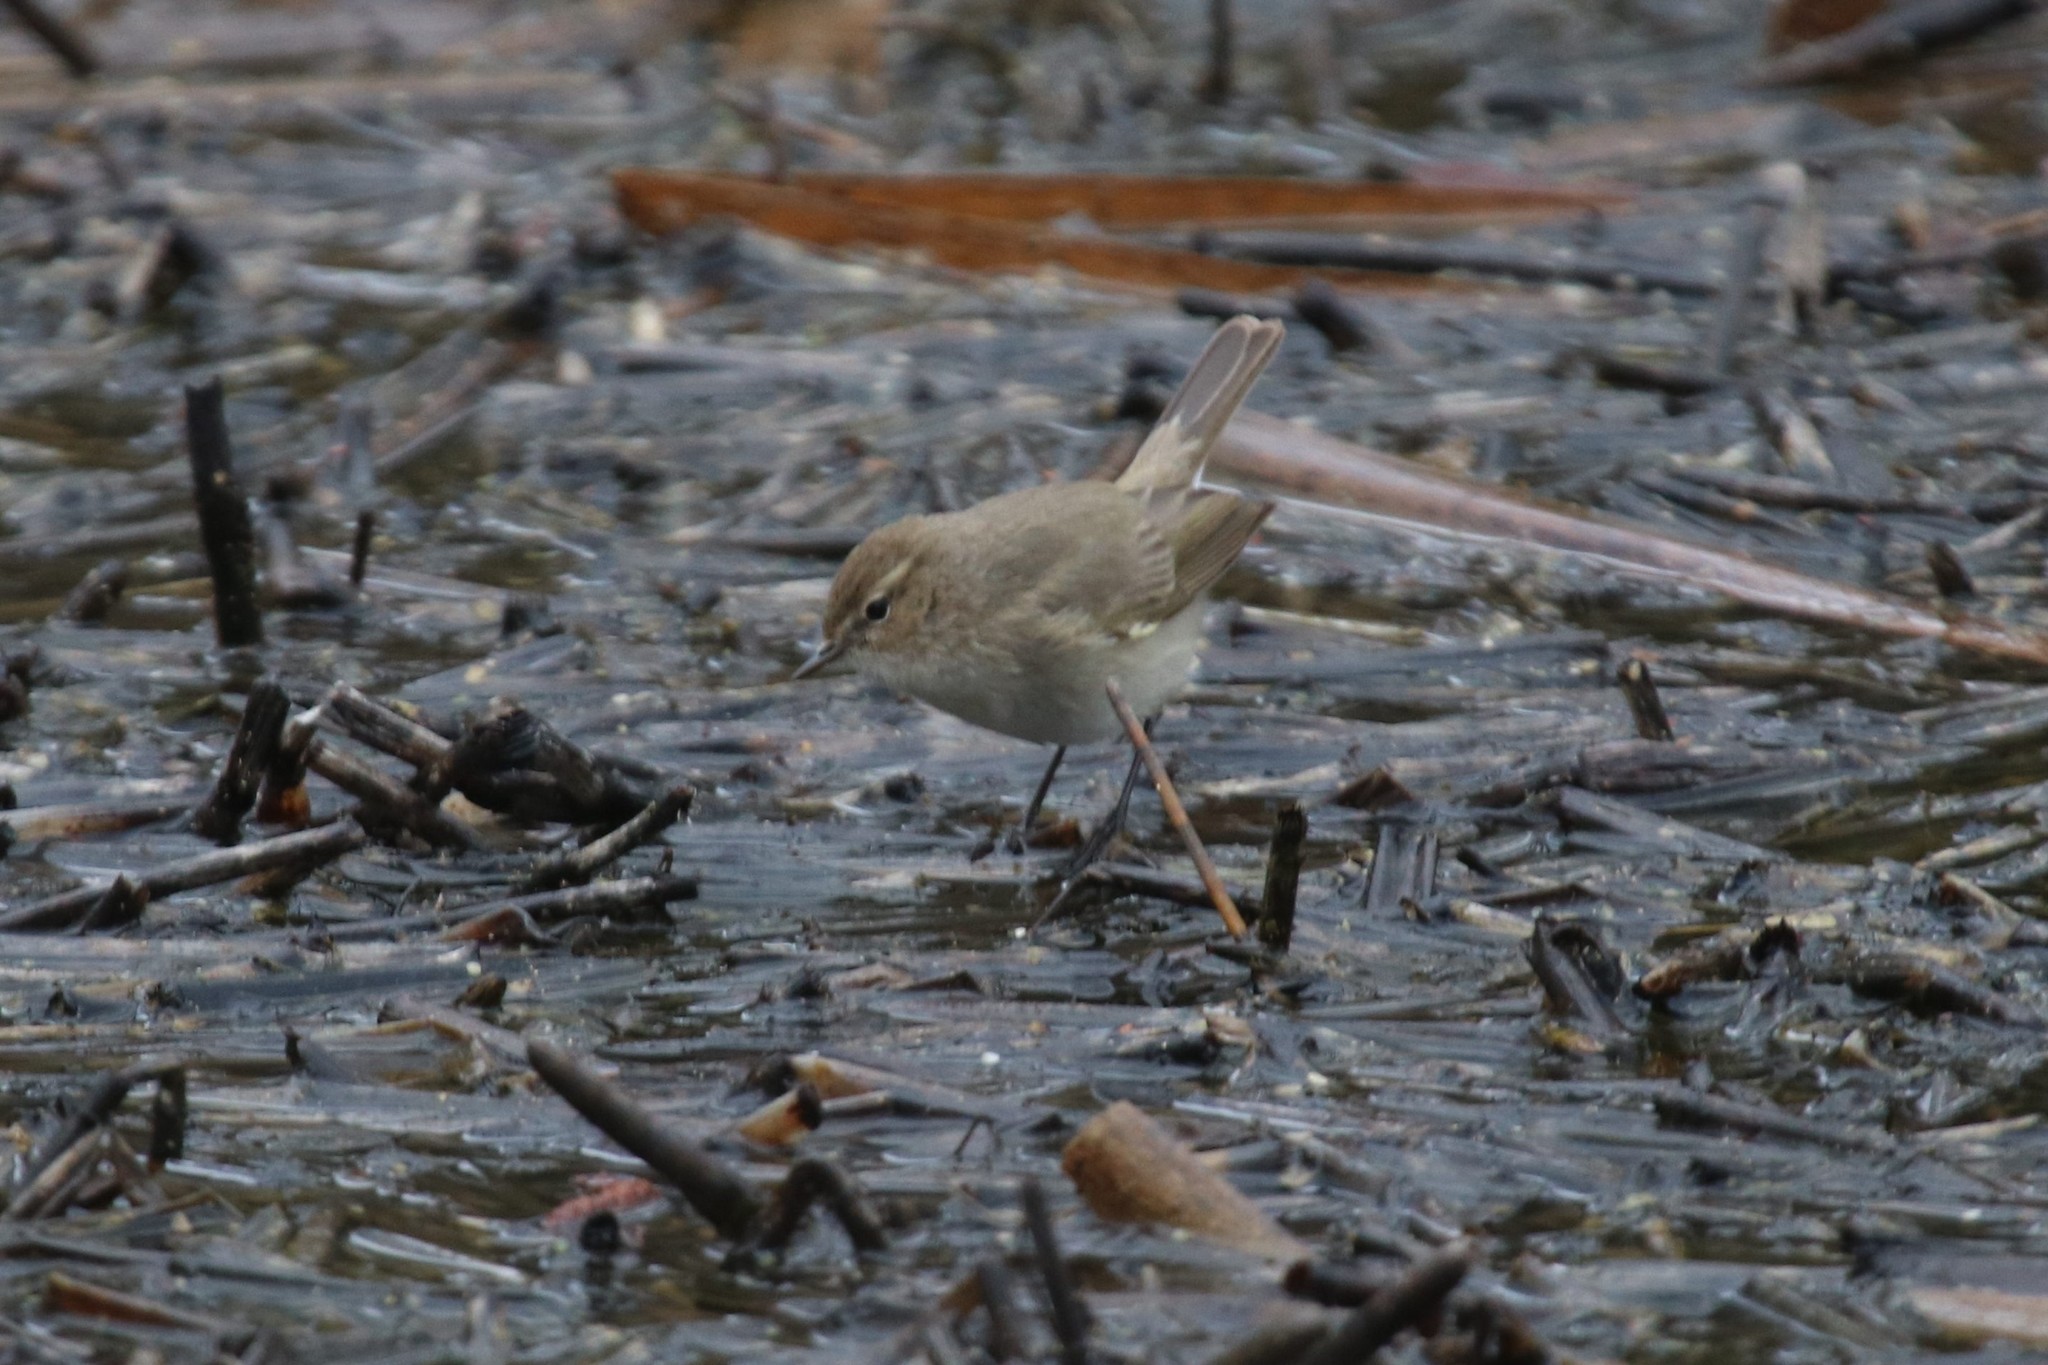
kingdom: Animalia
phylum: Chordata
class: Aves
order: Passeriformes
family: Phylloscopidae
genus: Phylloscopus
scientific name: Phylloscopus collybita
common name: Common chiffchaff
